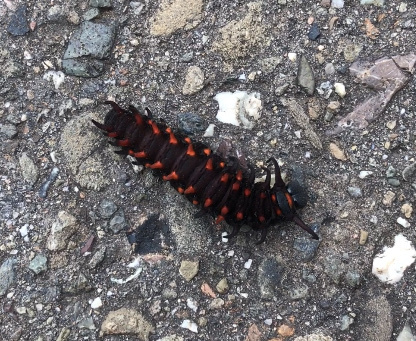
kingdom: Animalia
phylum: Arthropoda
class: Insecta
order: Lepidoptera
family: Papilionidae
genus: Battus
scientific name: Battus philenor
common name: Pipevine swallowtail
